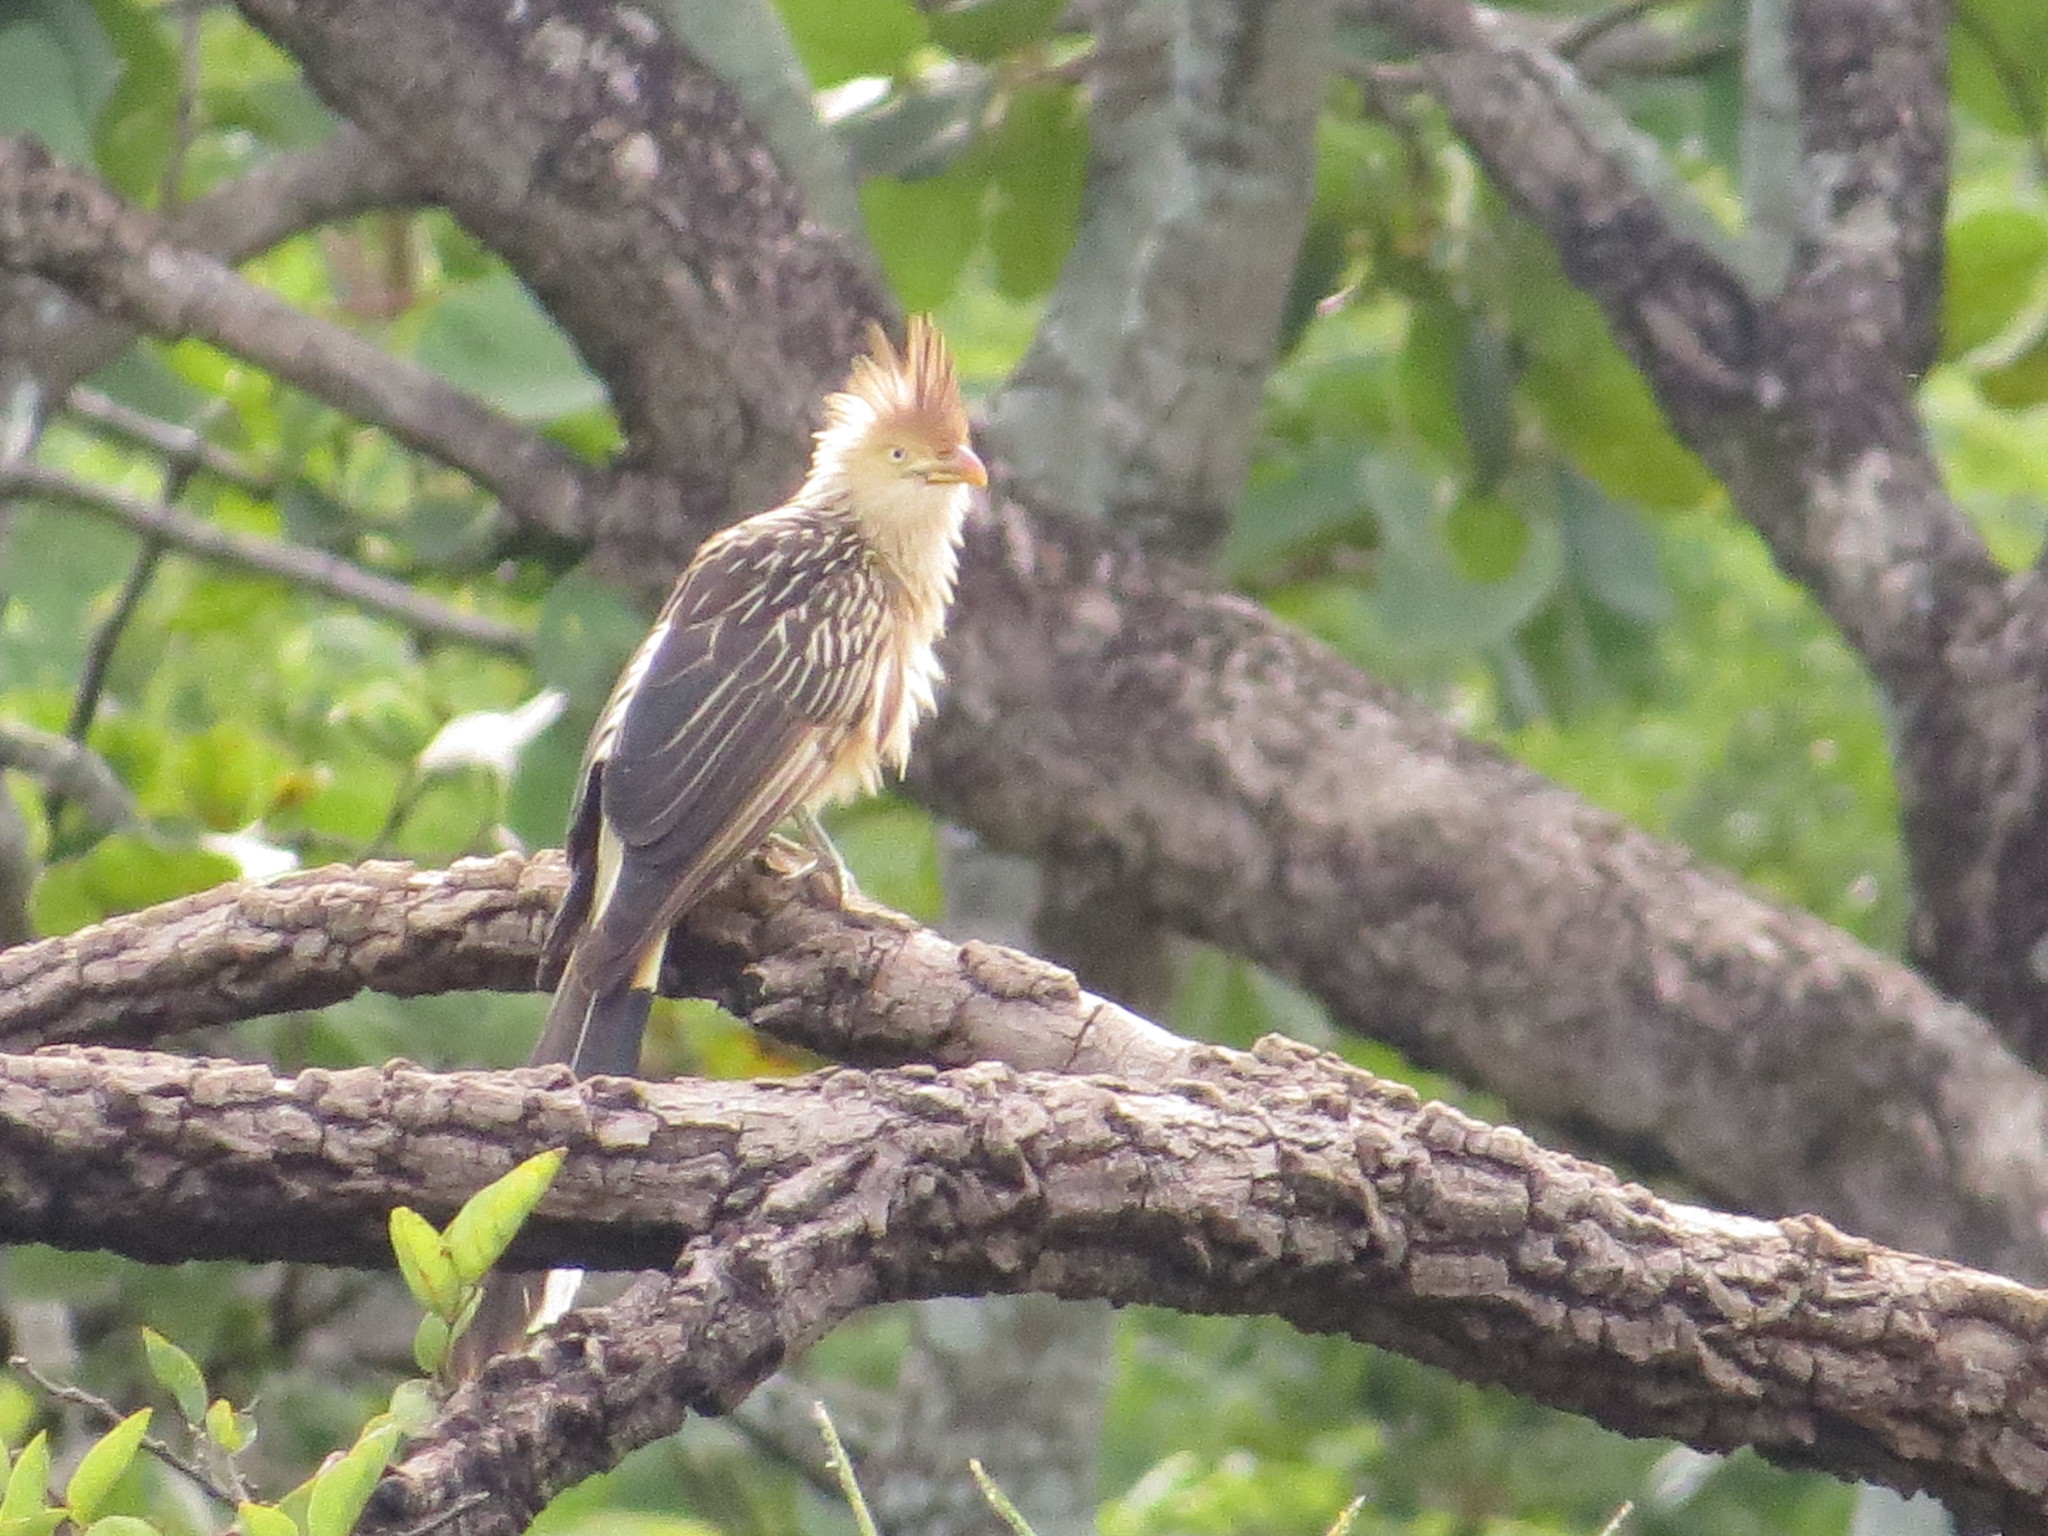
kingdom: Animalia
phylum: Chordata
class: Aves
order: Cuculiformes
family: Cuculidae
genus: Guira
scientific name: Guira guira
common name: Guira cuckoo
